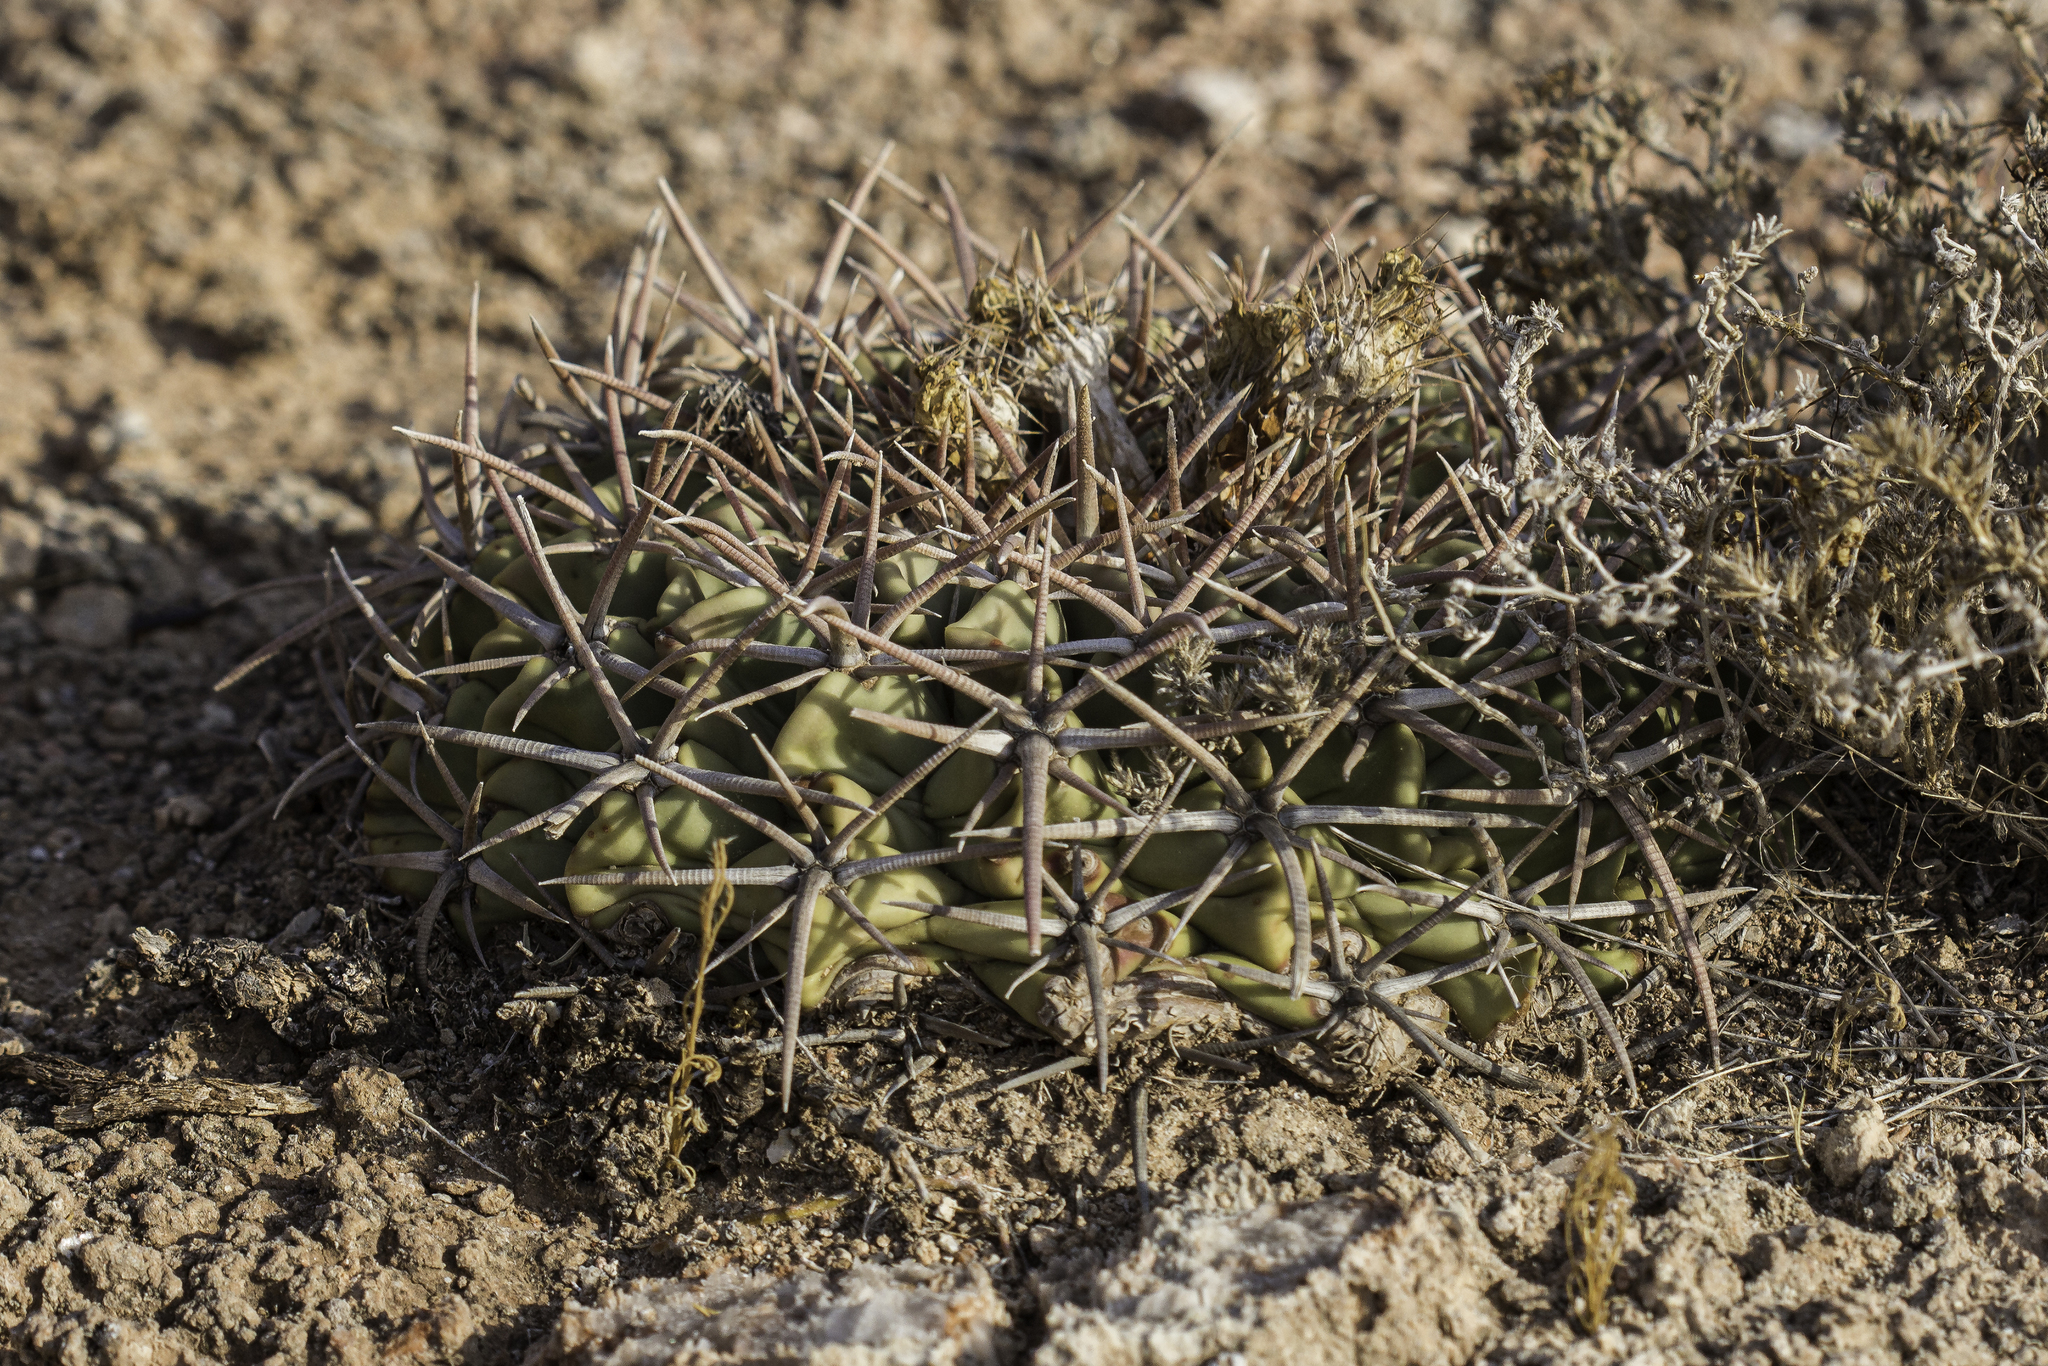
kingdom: Plantae
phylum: Tracheophyta
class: Magnoliopsida
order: Caryophyllales
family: Cactaceae
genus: Echinocactus
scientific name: Echinocactus texensis
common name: Devil's pincushion
